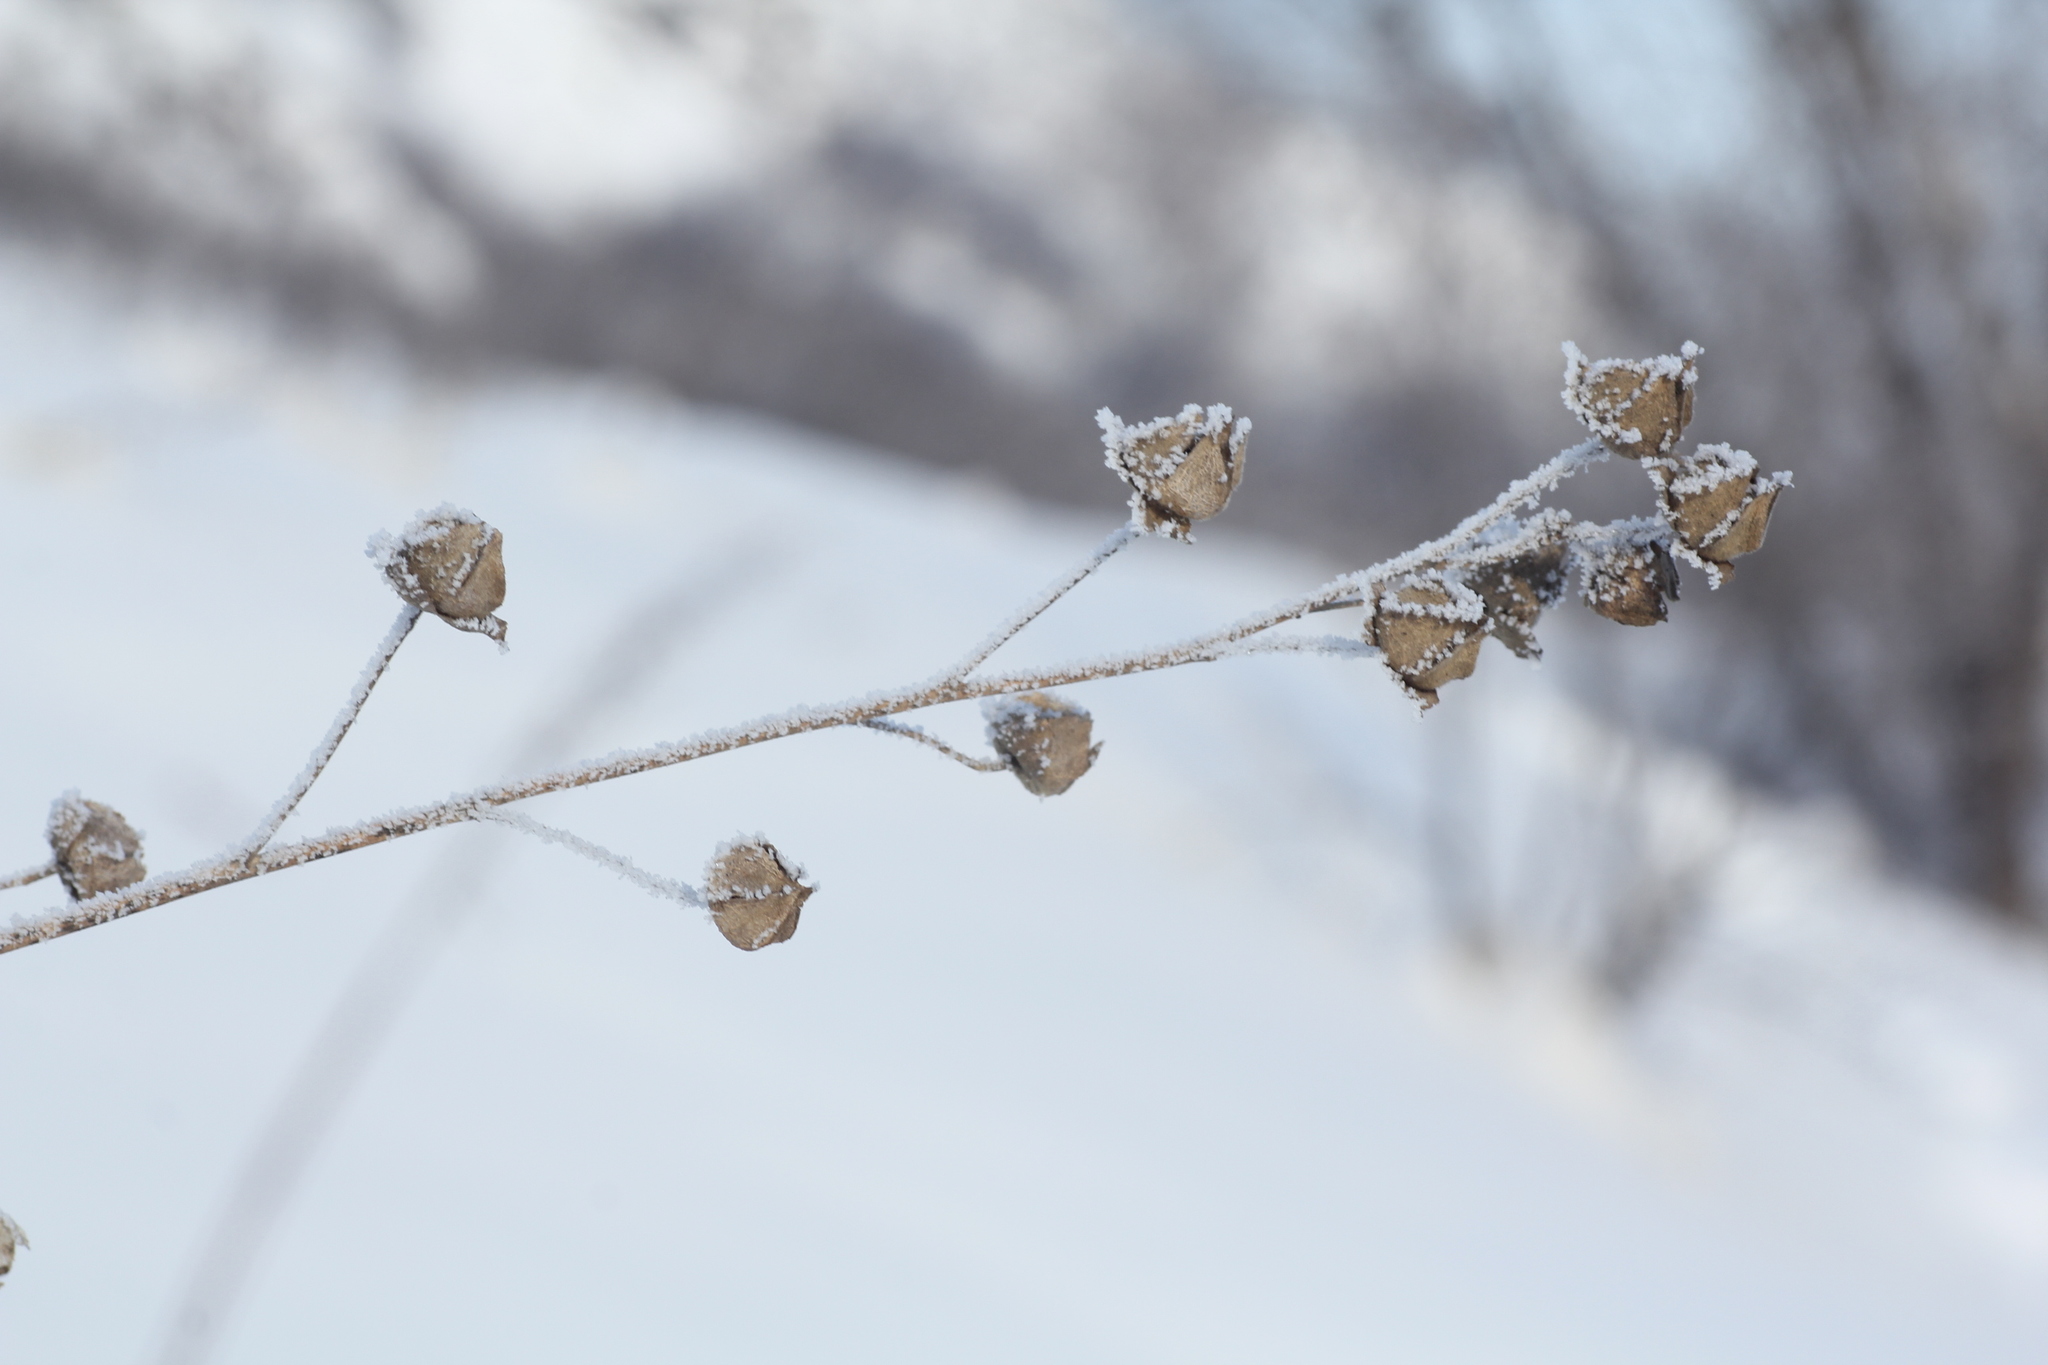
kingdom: Plantae
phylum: Tracheophyta
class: Magnoliopsida
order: Malvales
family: Malvaceae
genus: Malva
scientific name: Malva thuringiaca
